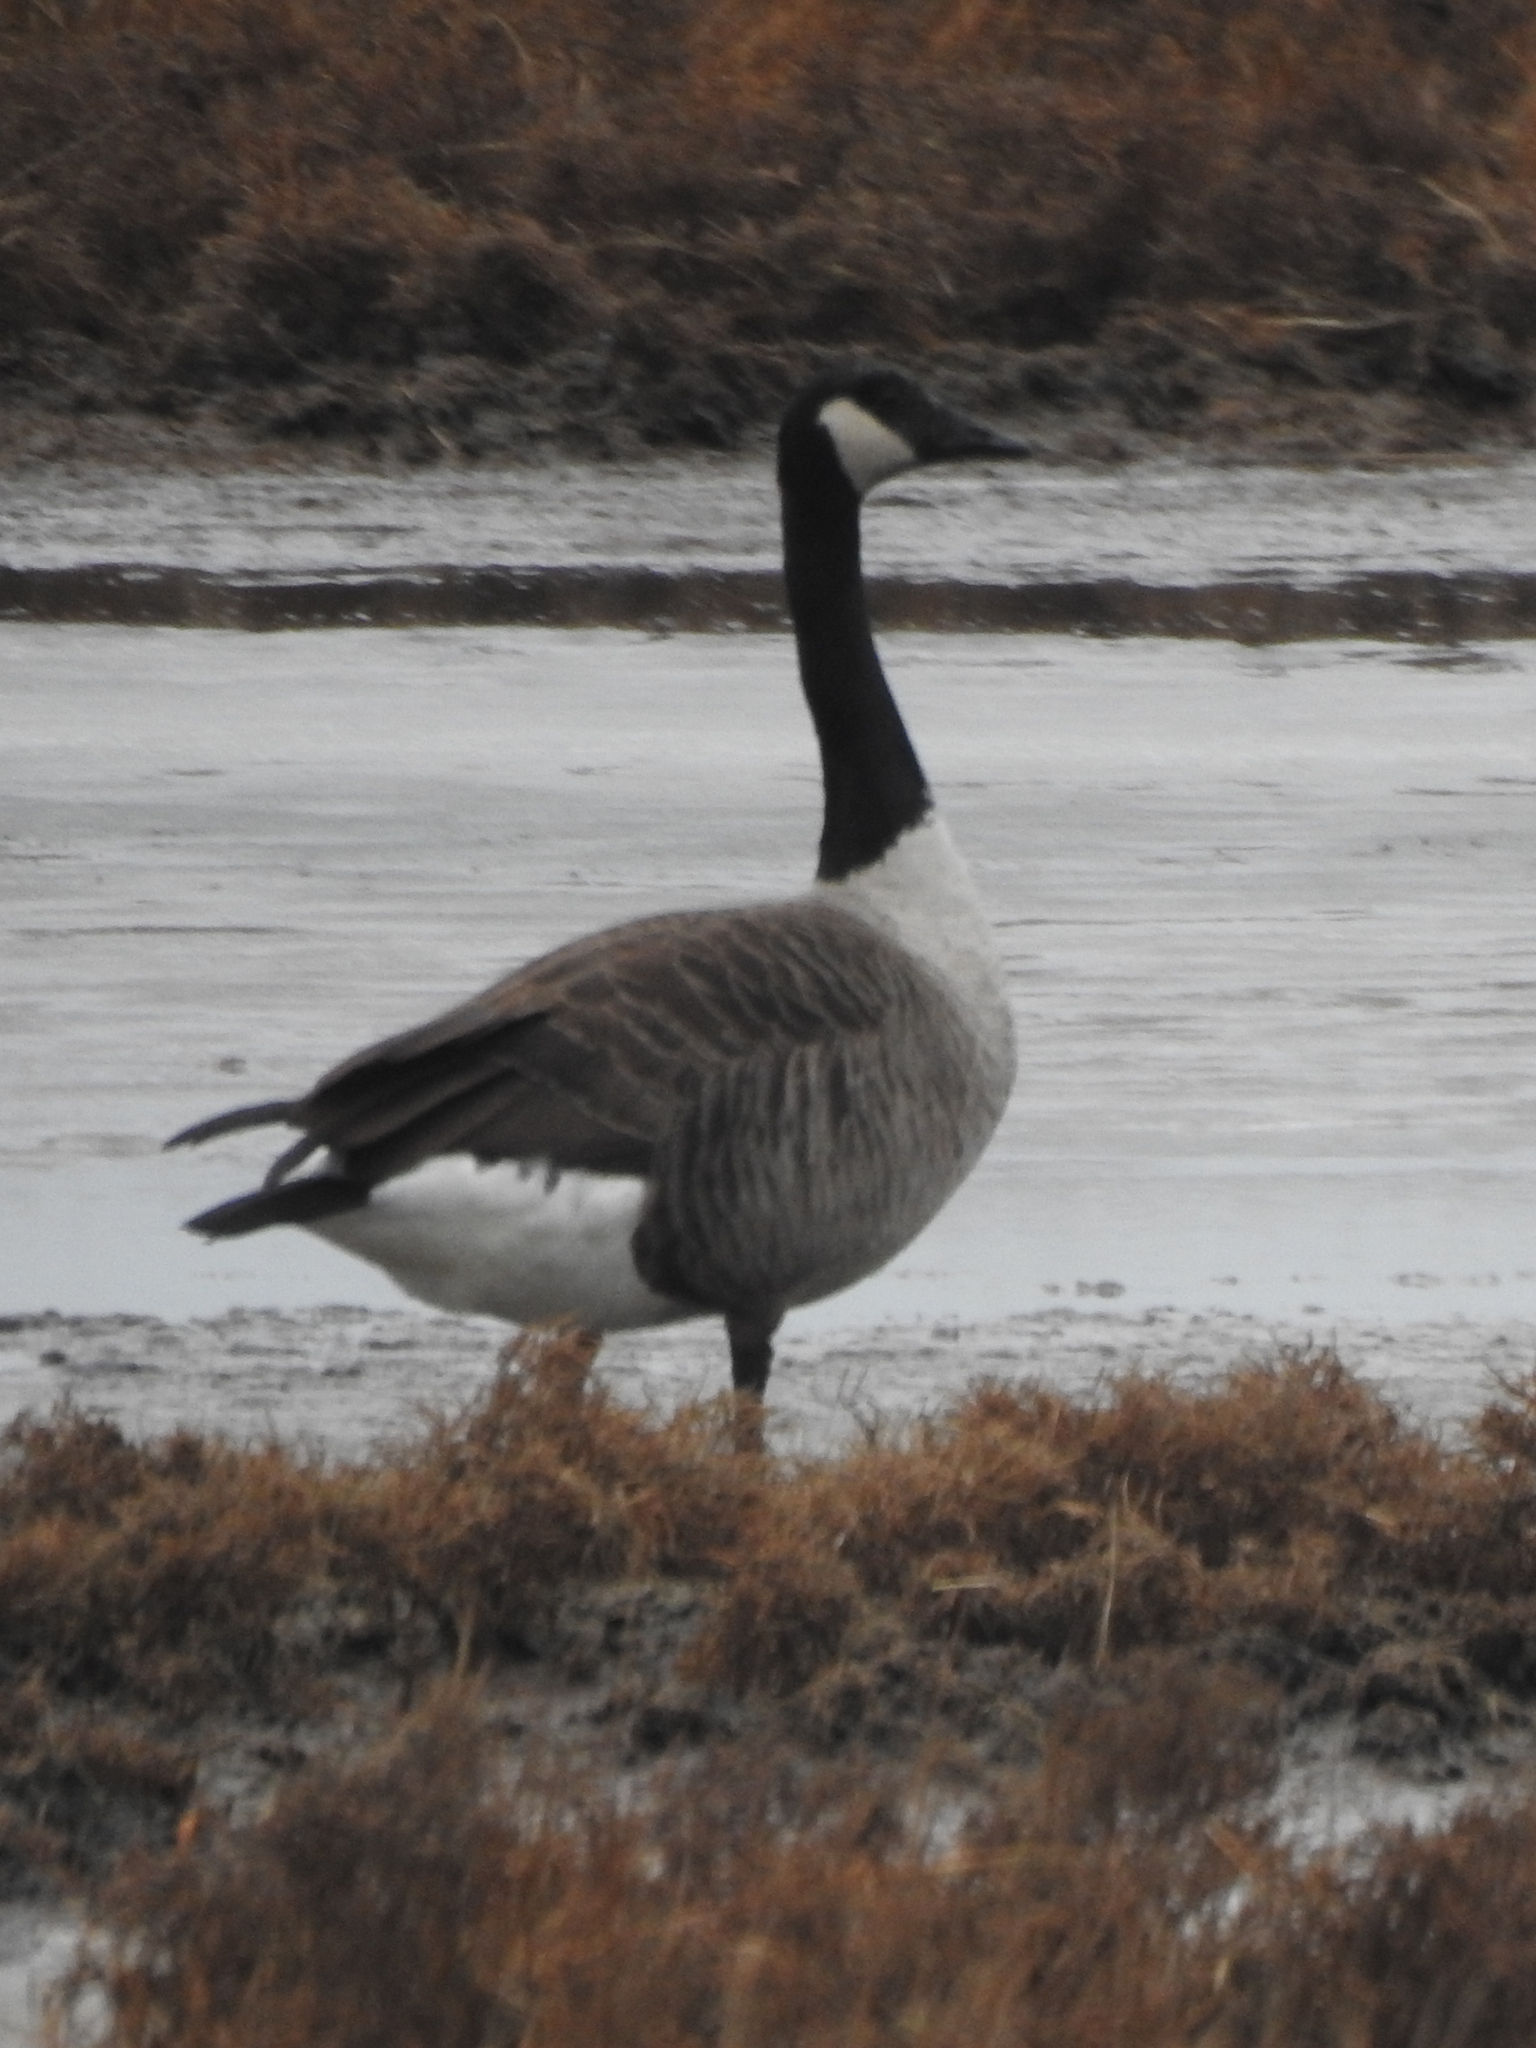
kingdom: Animalia
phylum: Chordata
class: Aves
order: Anseriformes
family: Anatidae
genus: Branta
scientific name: Branta canadensis
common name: Canada goose
